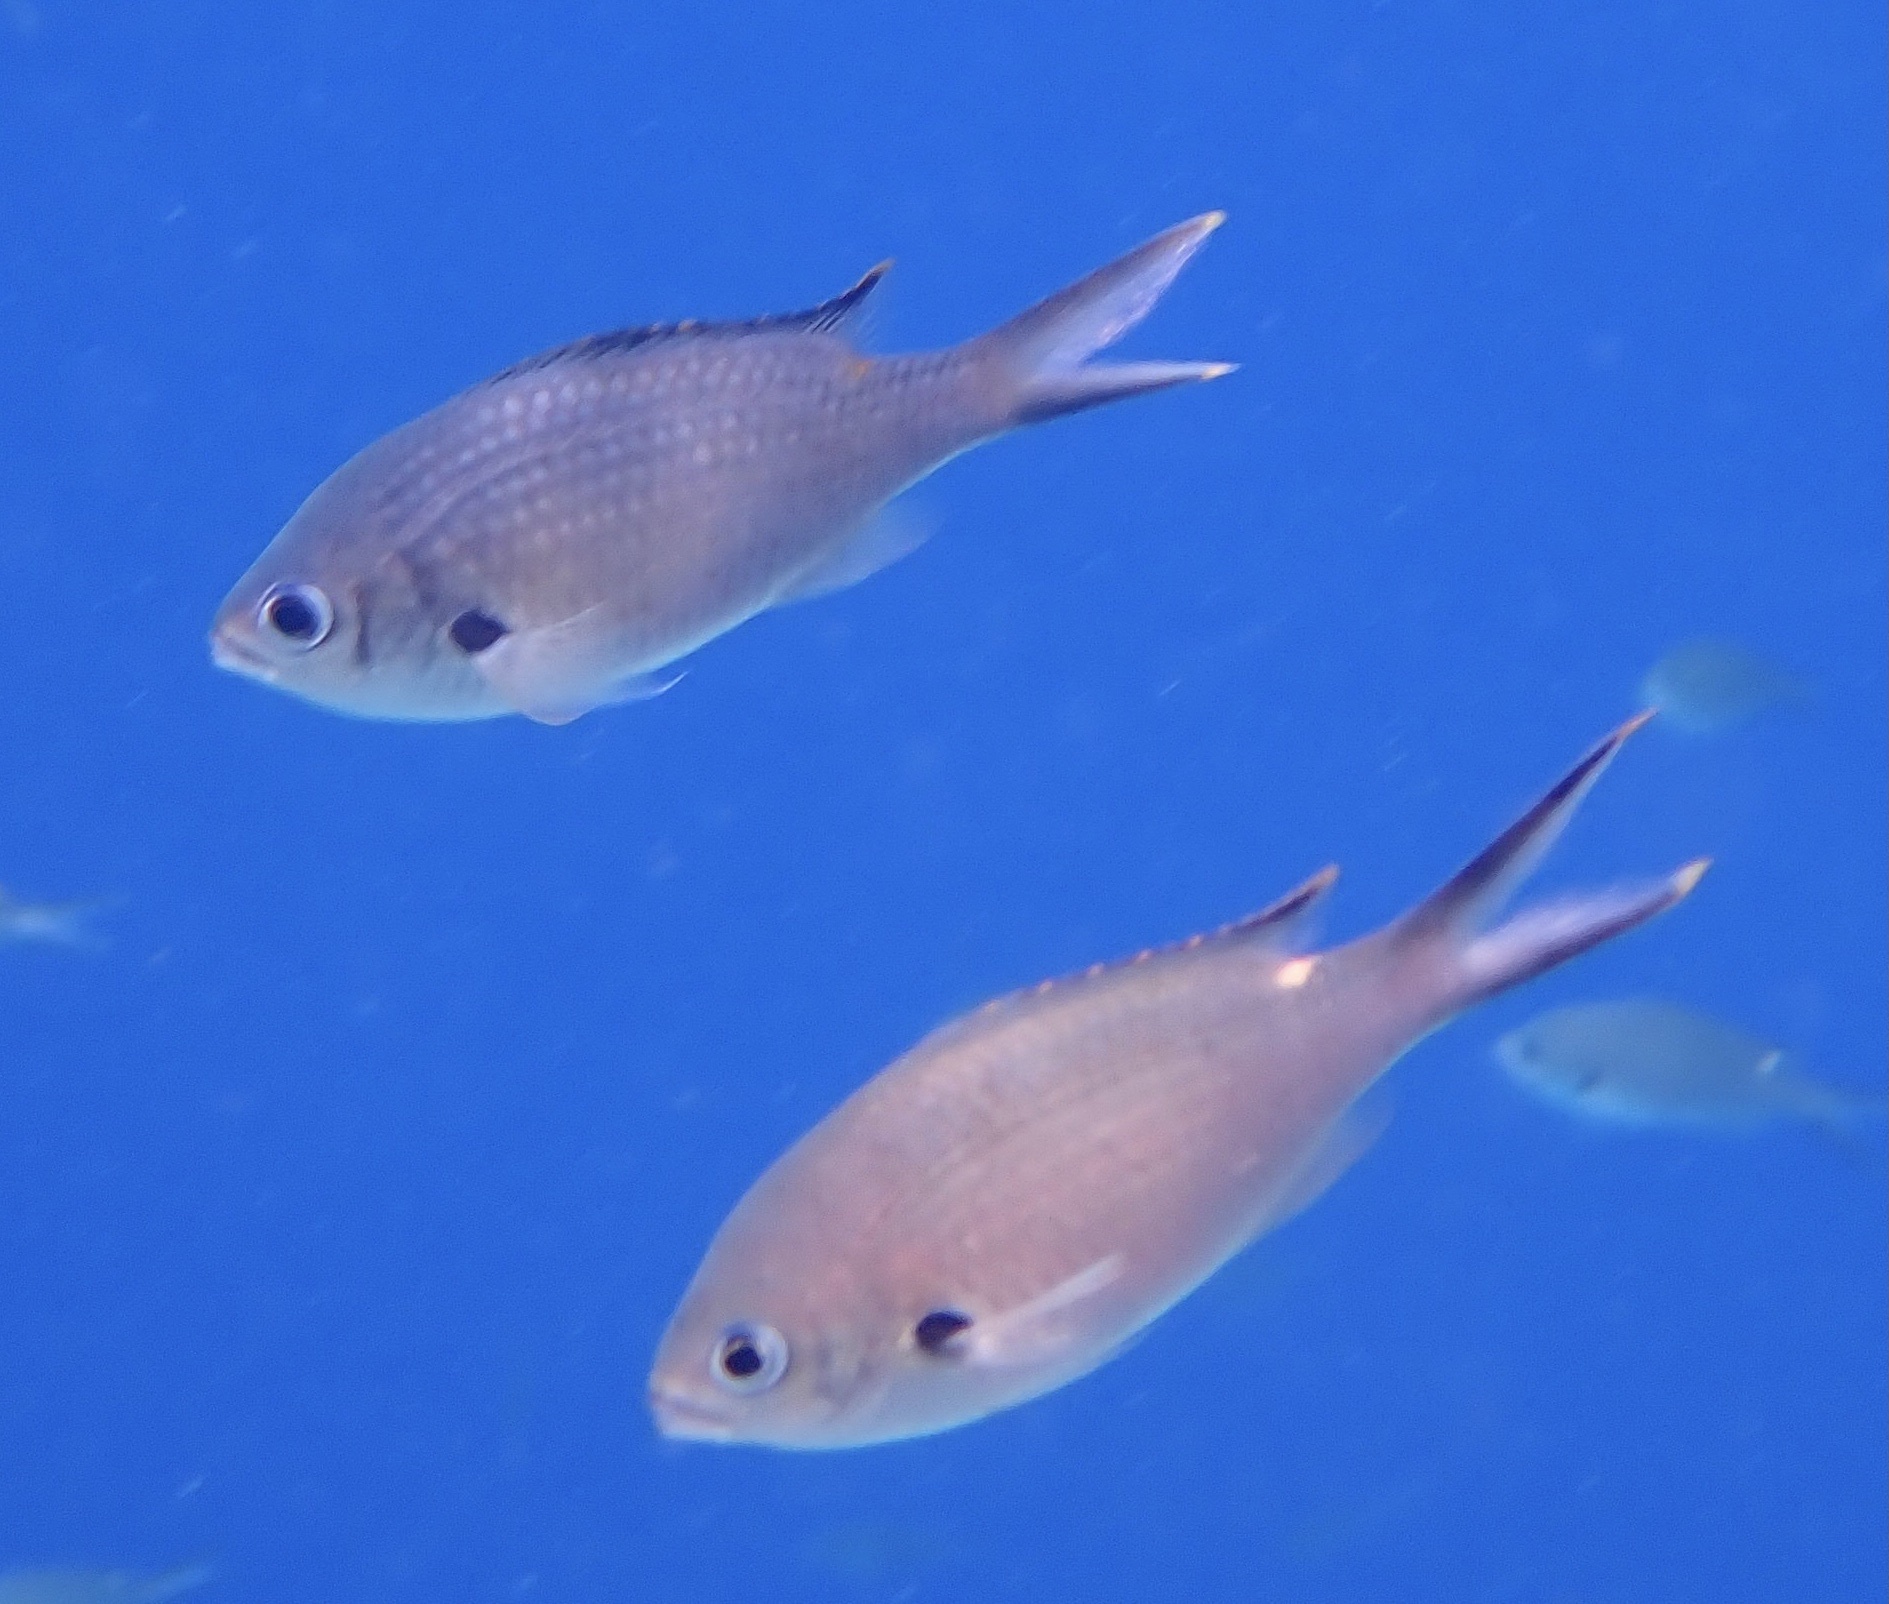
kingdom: Animalia
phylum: Chordata
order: Perciformes
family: Pomacentridae
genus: Chromis
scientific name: Chromis multilineata
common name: Brown chromis
